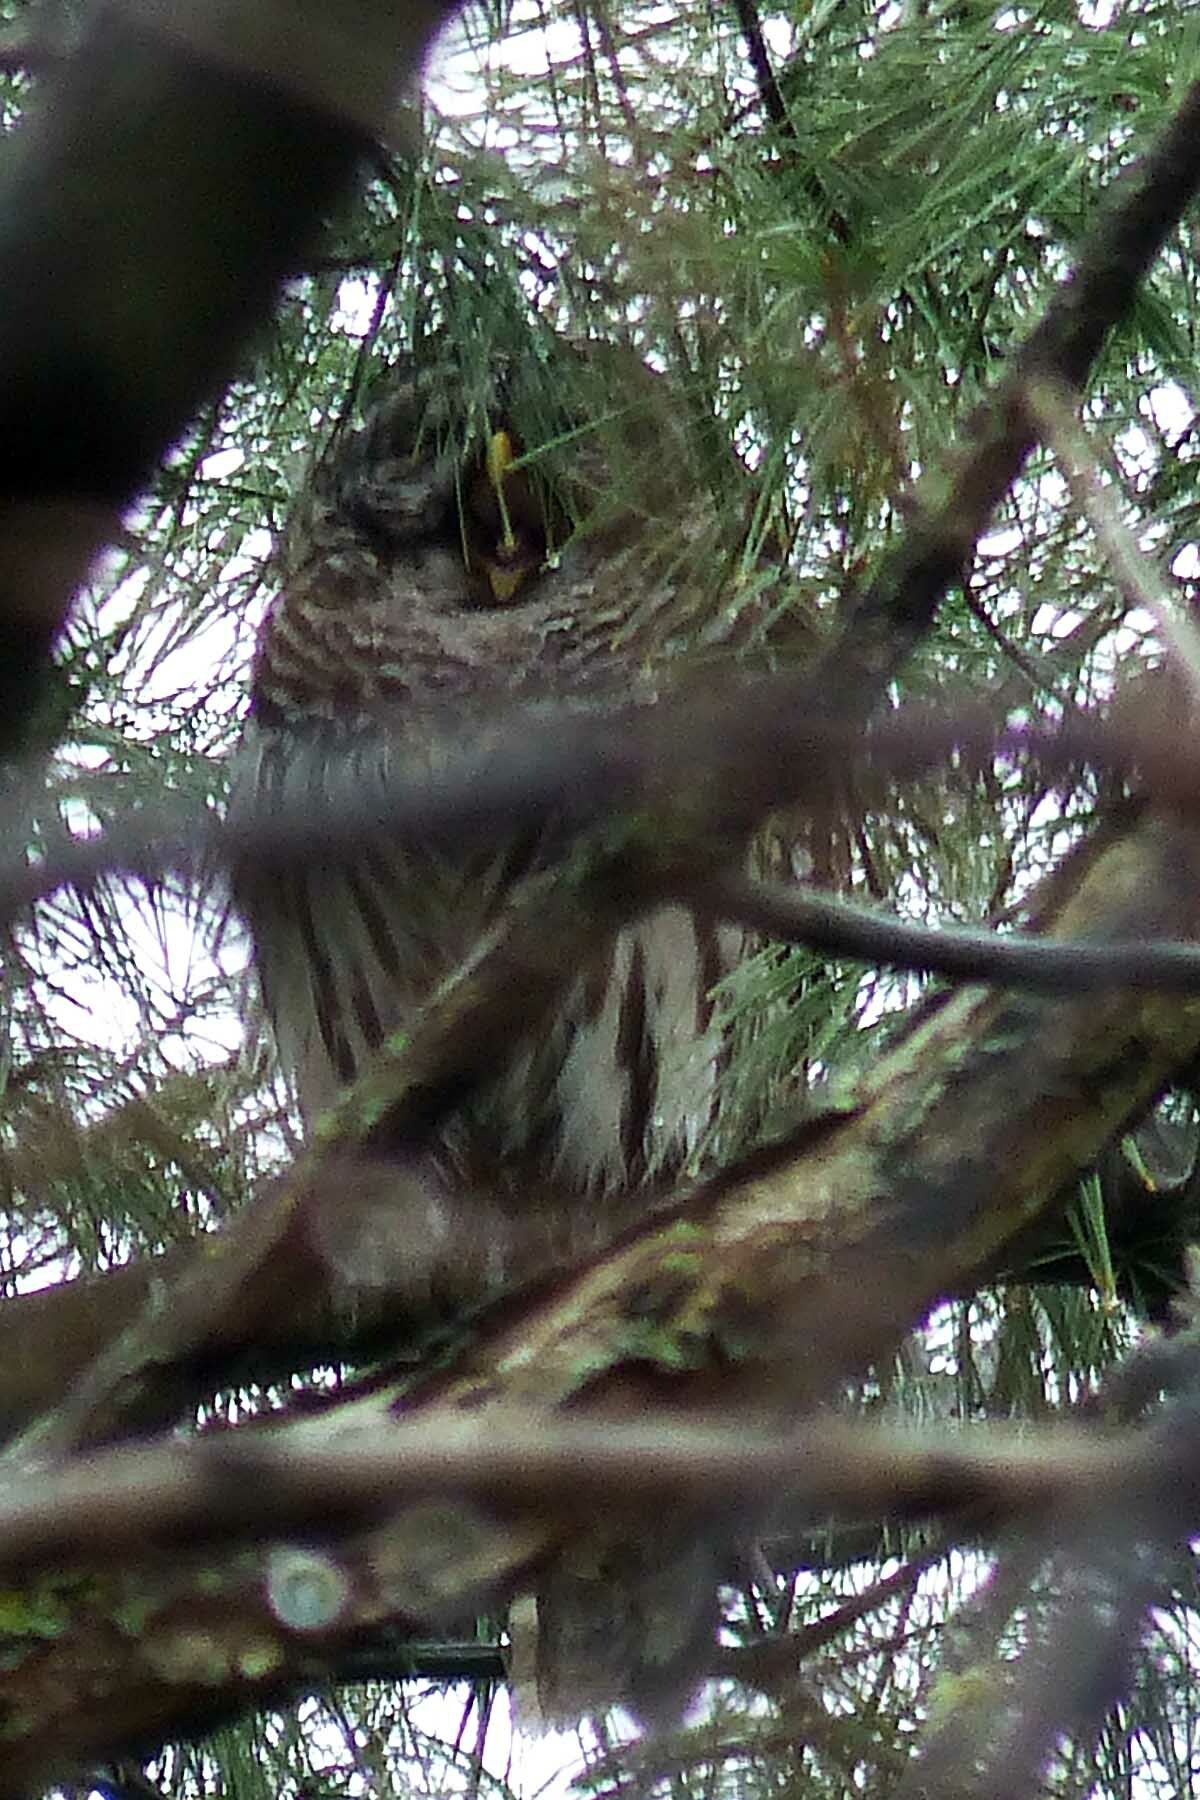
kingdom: Animalia
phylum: Chordata
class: Aves
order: Strigiformes
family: Strigidae
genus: Strix
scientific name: Strix varia
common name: Barred owl
